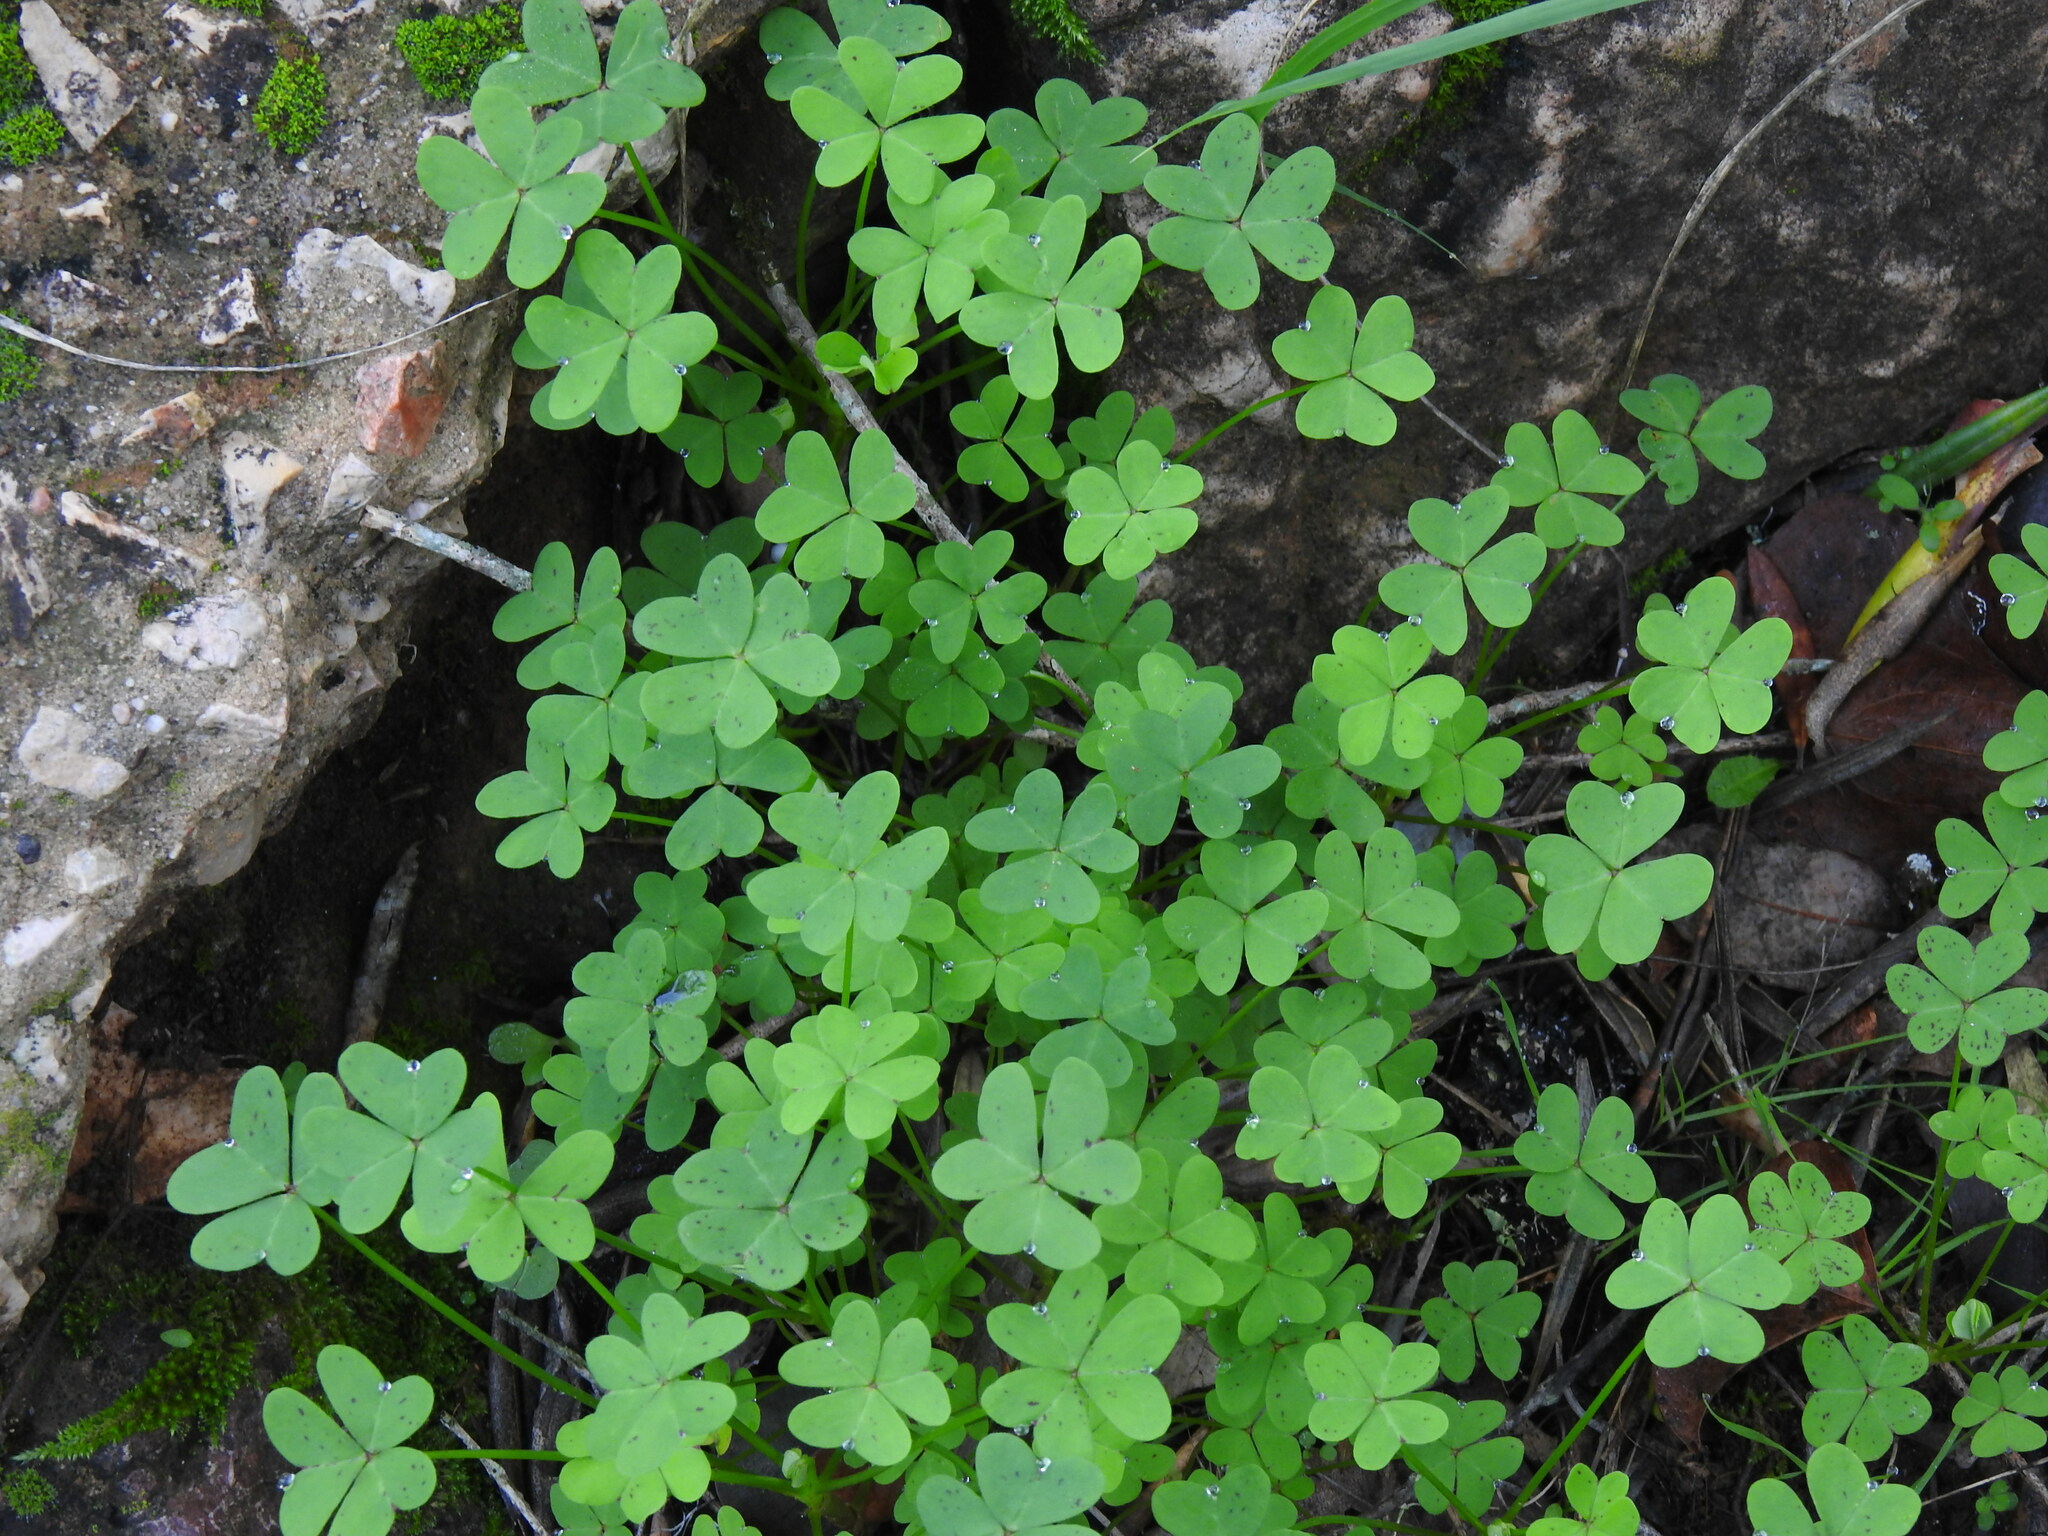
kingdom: Plantae
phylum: Tracheophyta
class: Magnoliopsida
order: Oxalidales
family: Oxalidaceae
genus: Oxalis
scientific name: Oxalis pes-caprae
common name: Bermuda-buttercup
